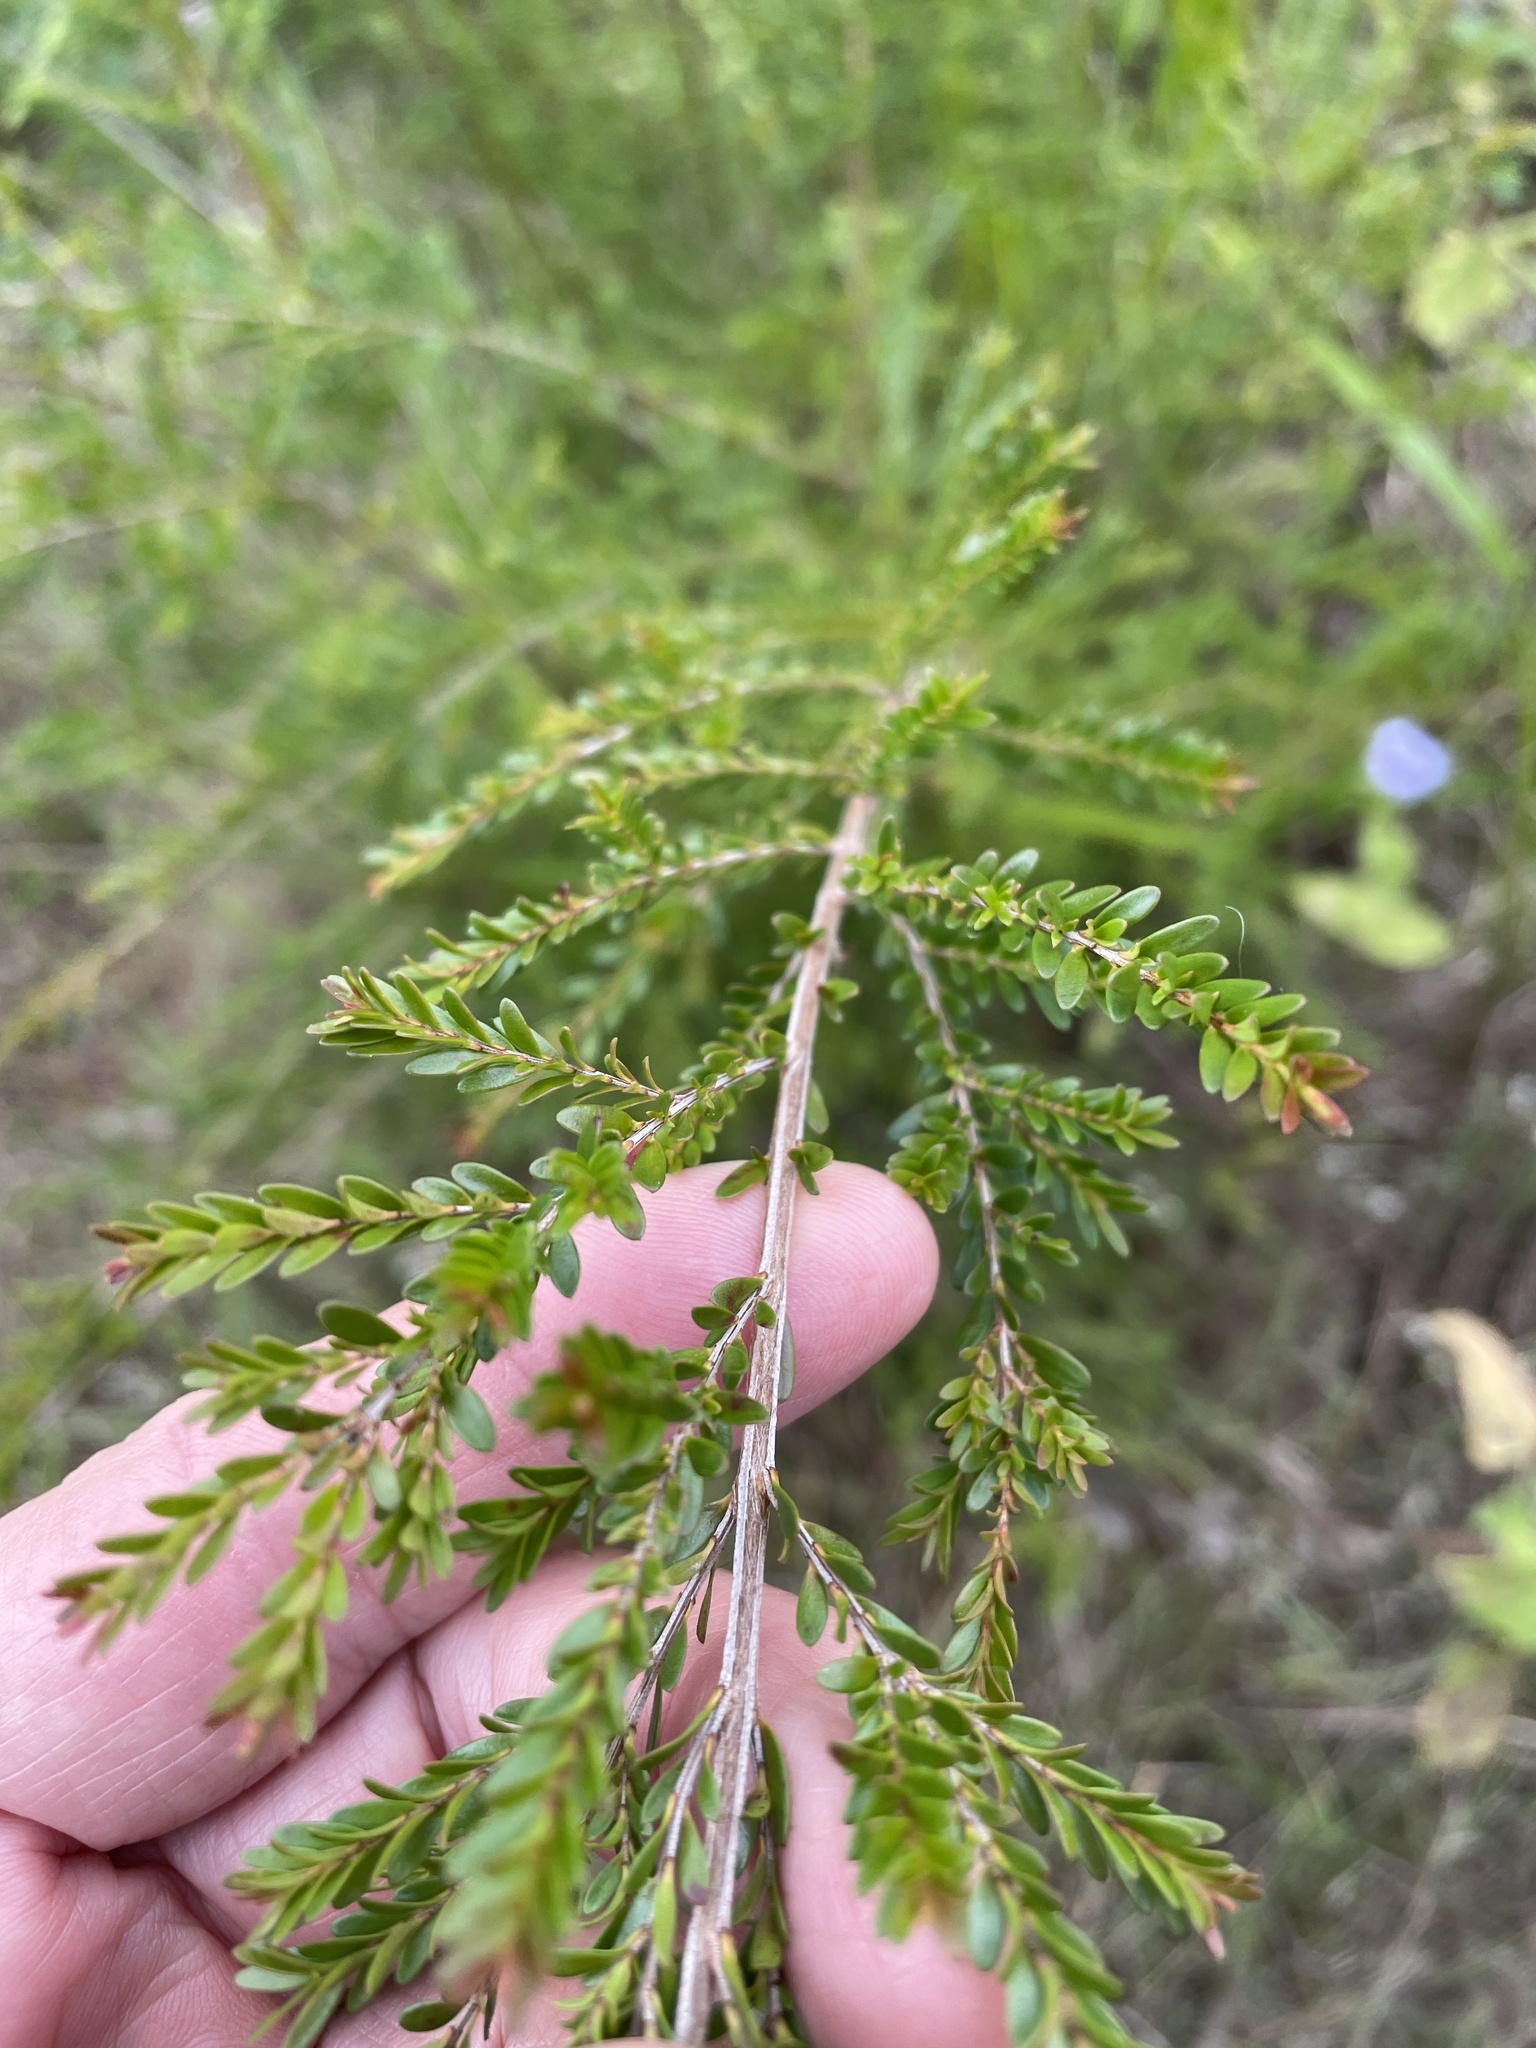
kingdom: Plantae
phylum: Tracheophyta
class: Magnoliopsida
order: Myrtales
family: Myrtaceae
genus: Sannantha
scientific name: Sannantha bidwillii
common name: Tall baeckea
